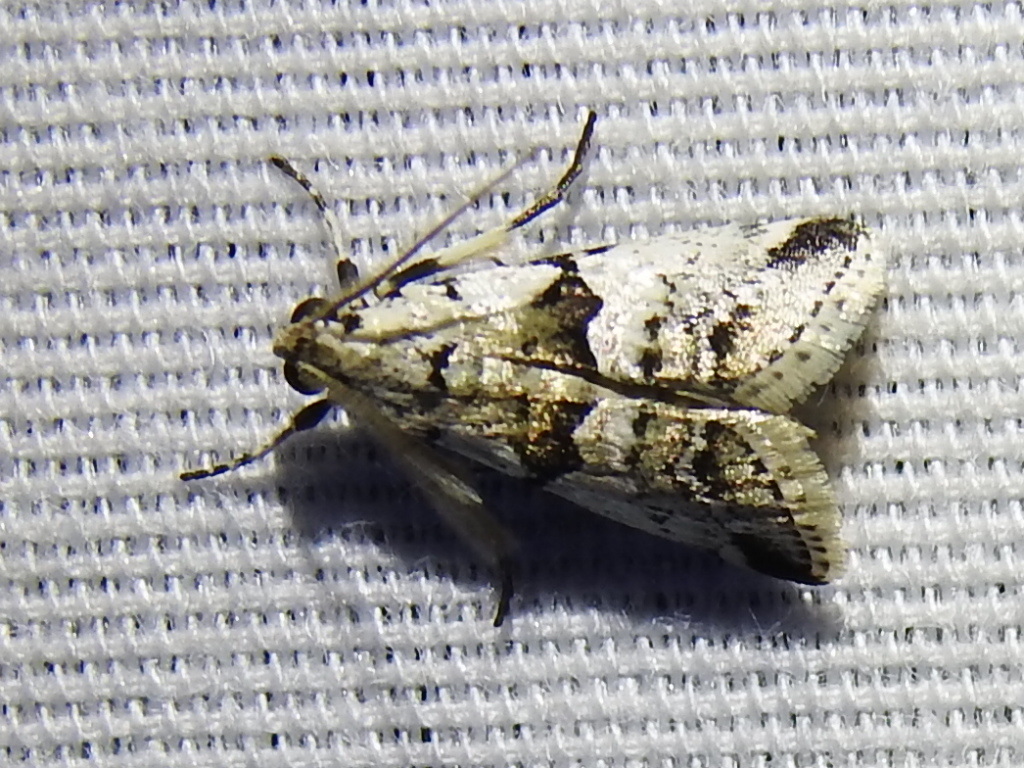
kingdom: Animalia
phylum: Arthropoda
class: Insecta
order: Lepidoptera
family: Pyralidae
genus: Tallula
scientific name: Tallula atrifascialis
